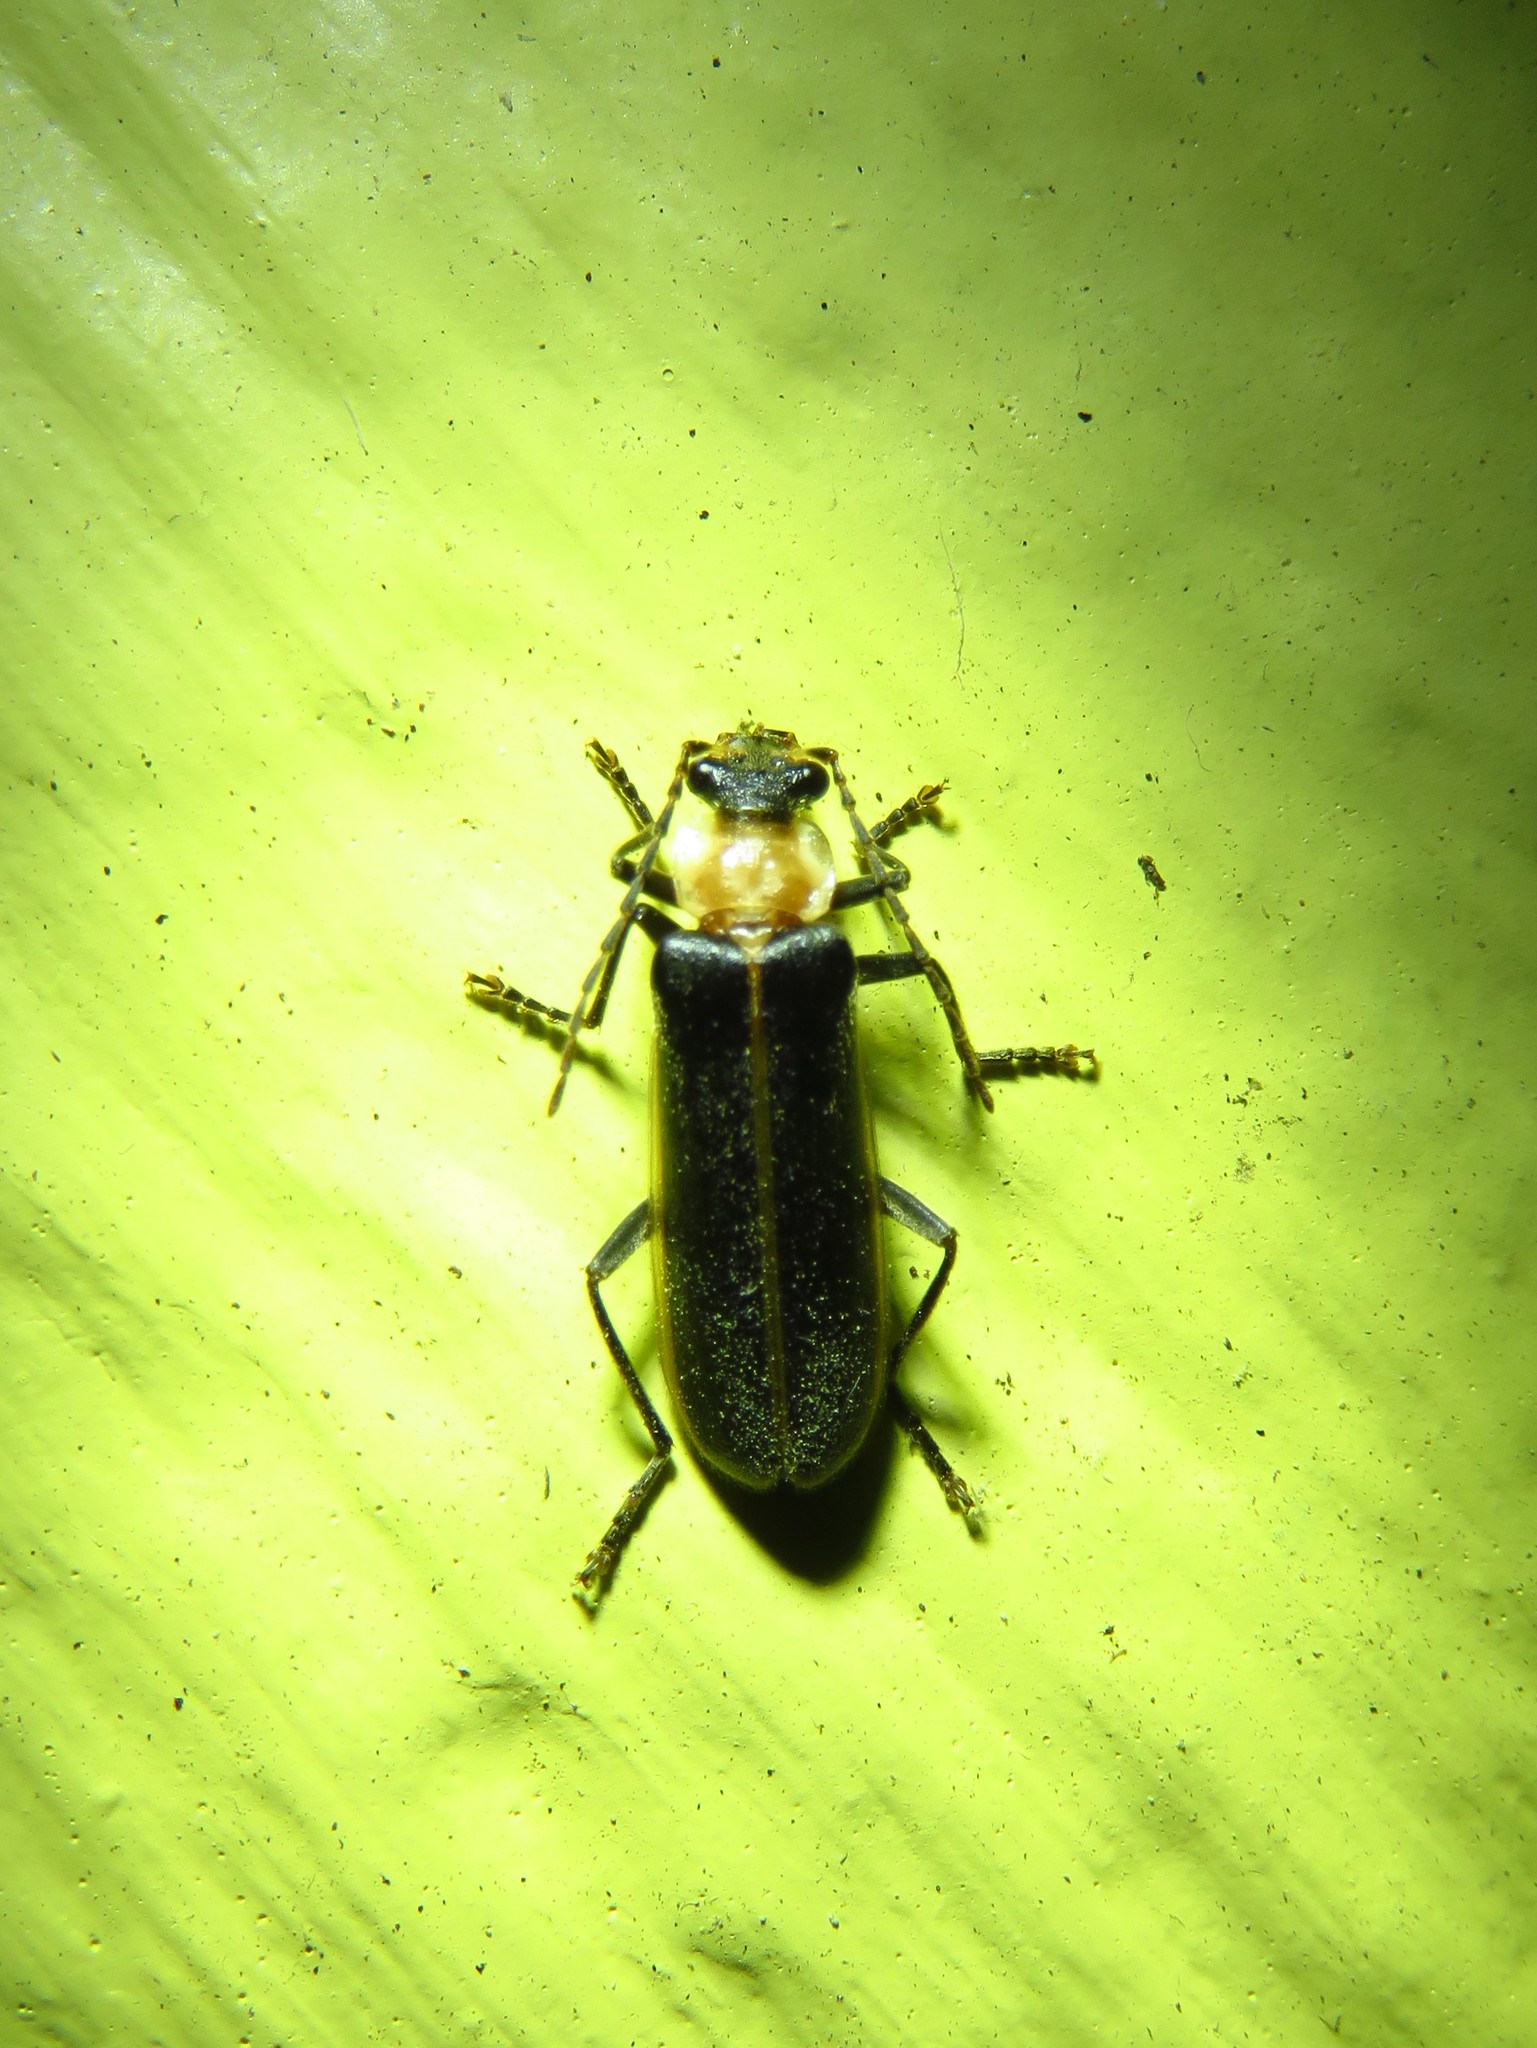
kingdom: Animalia
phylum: Arthropoda
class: Insecta
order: Coleoptera
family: Cantharidae
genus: Podabrus
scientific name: Podabrus flavicollis
